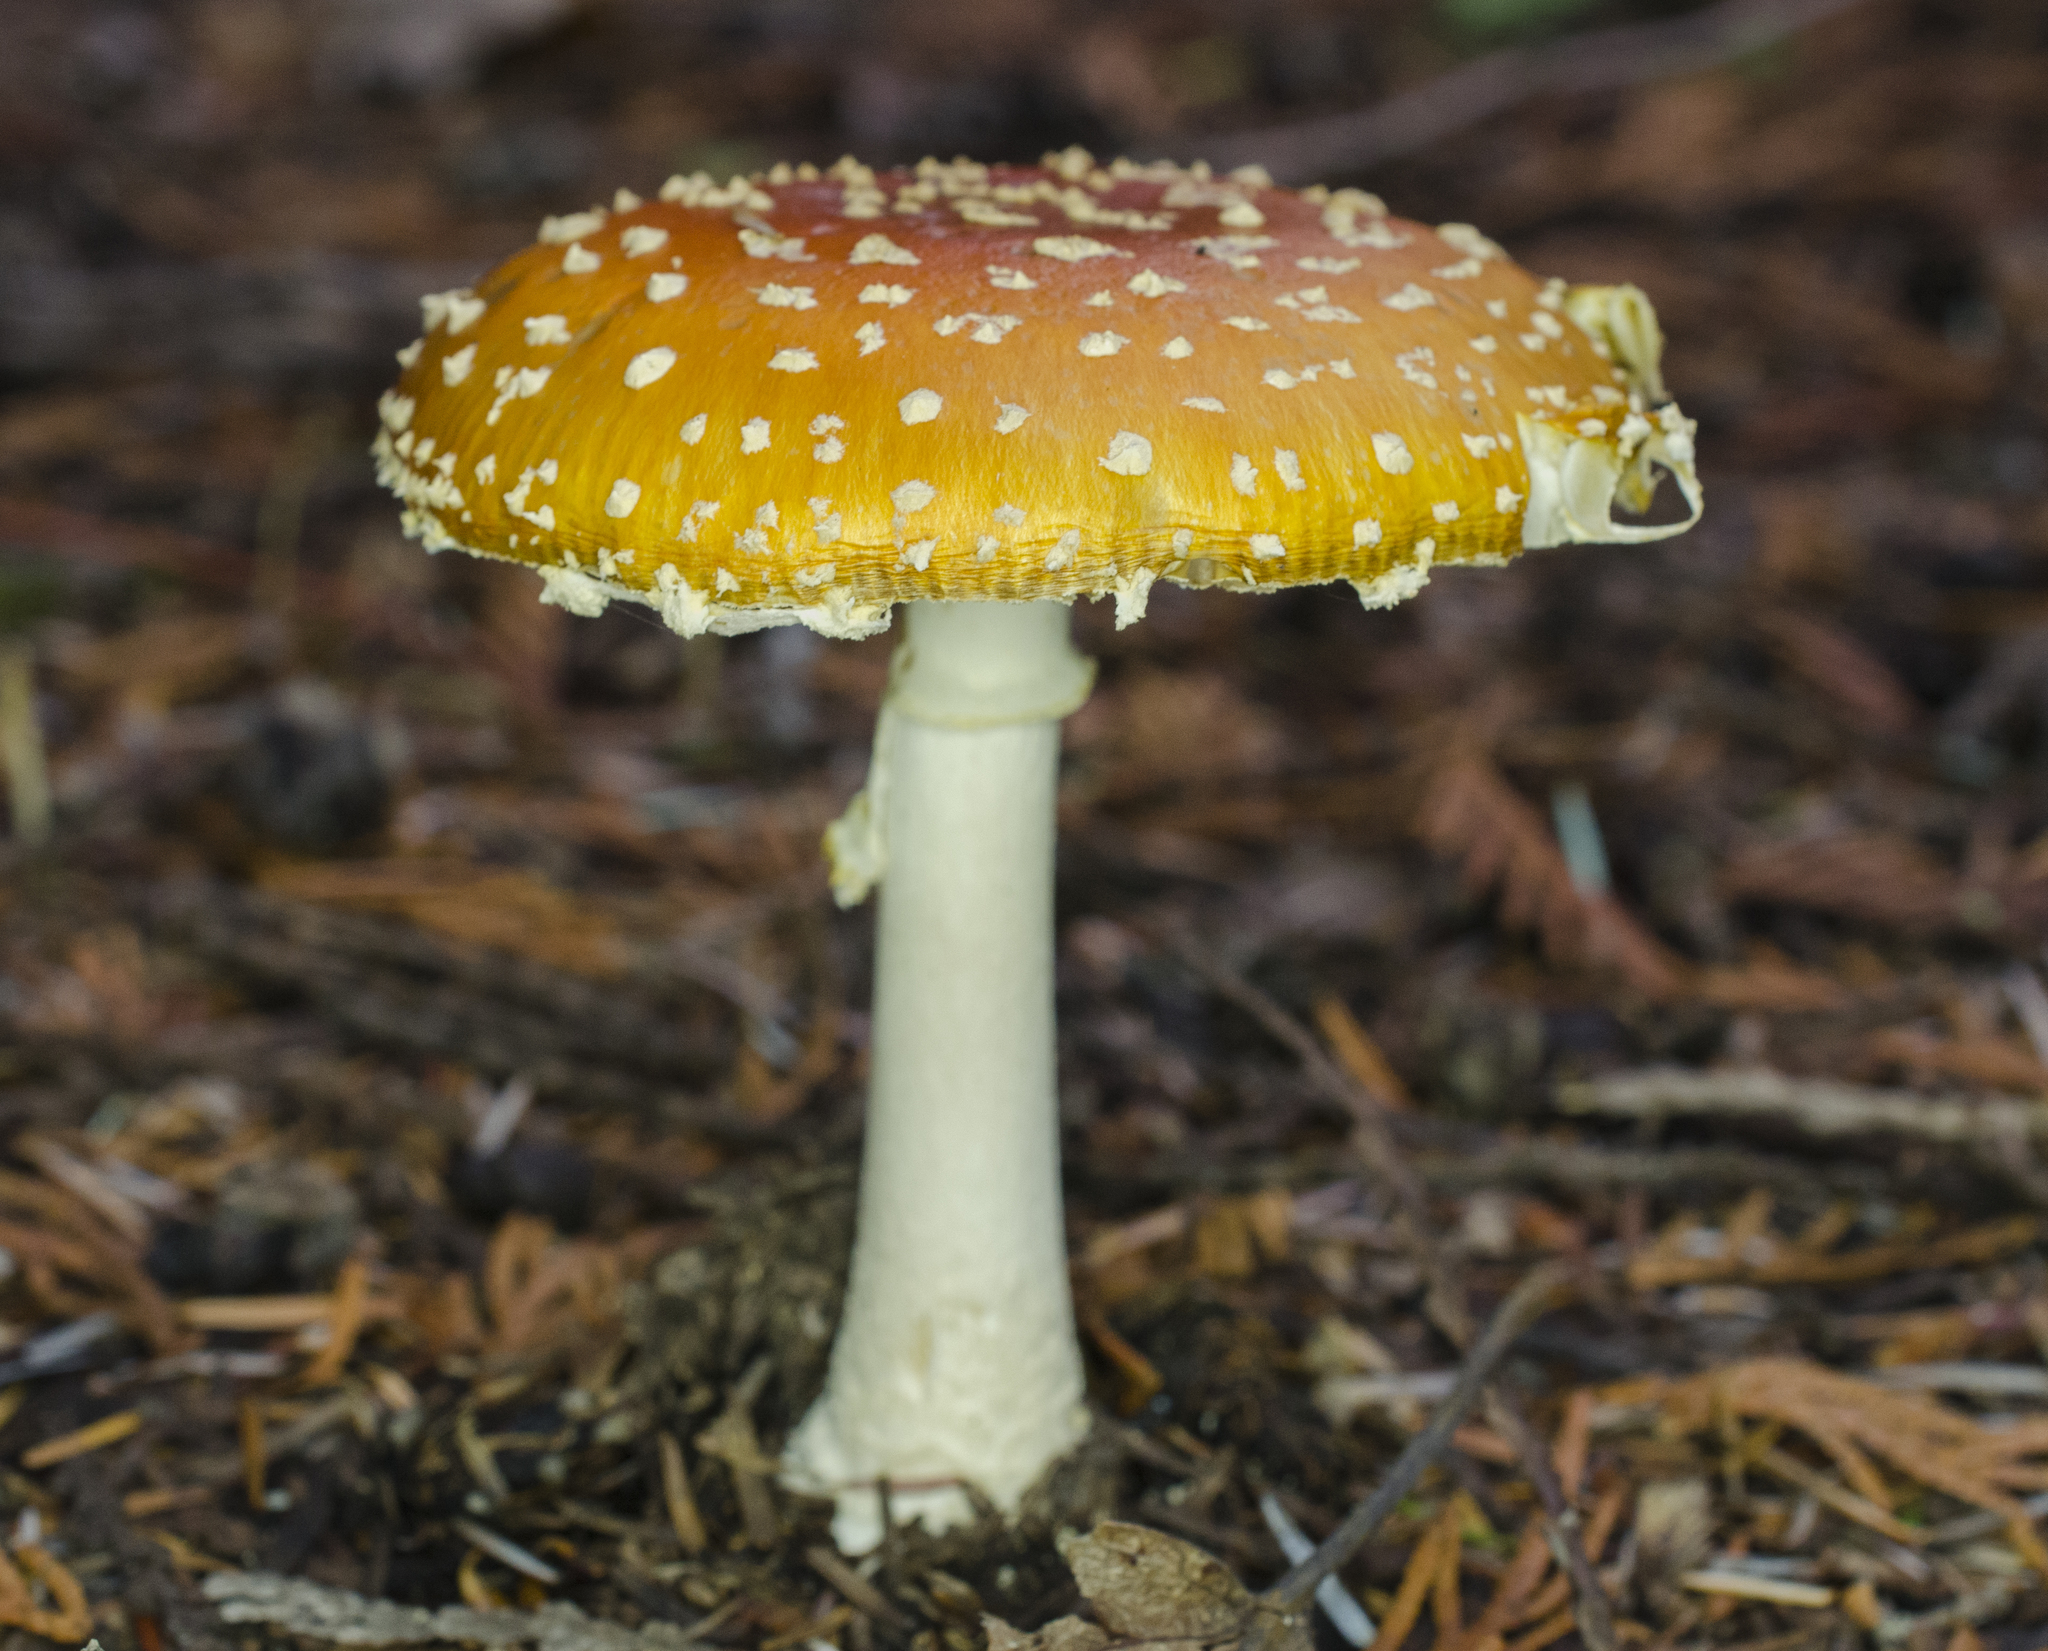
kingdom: Fungi
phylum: Basidiomycota
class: Agaricomycetes
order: Agaricales
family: Amanitaceae
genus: Amanita
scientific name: Amanita muscaria
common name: Fly agaric
